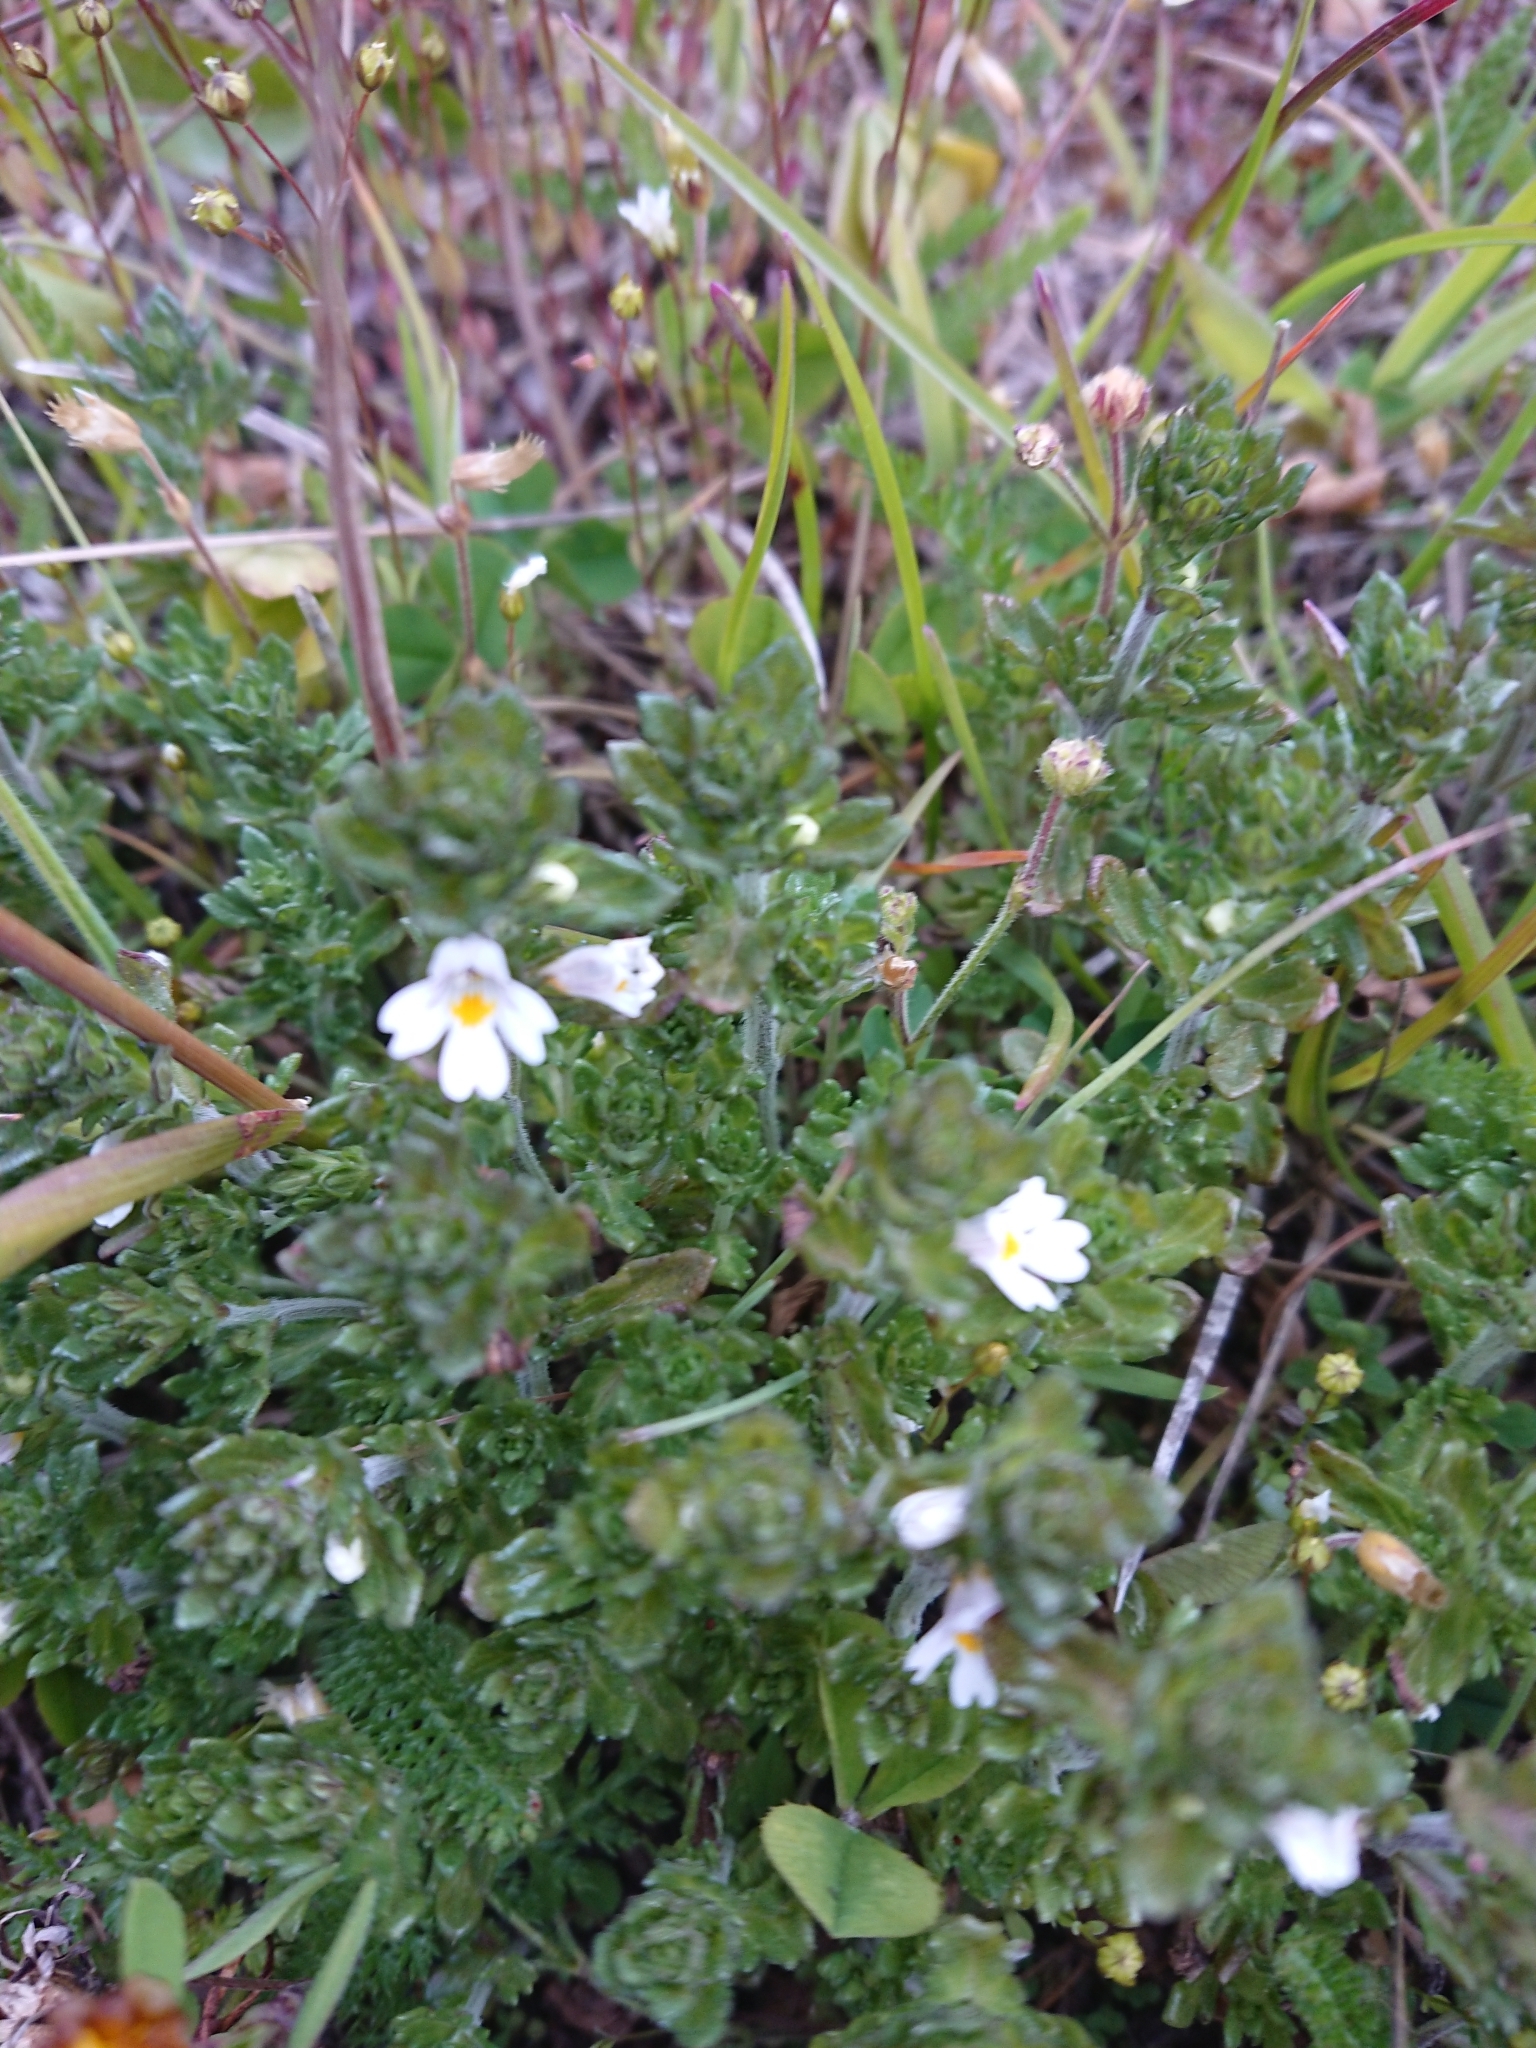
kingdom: Plantae
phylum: Tracheophyta
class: Magnoliopsida
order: Lamiales
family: Orobanchaceae
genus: Euphrasia
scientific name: Euphrasia officinalis
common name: Eyebright
